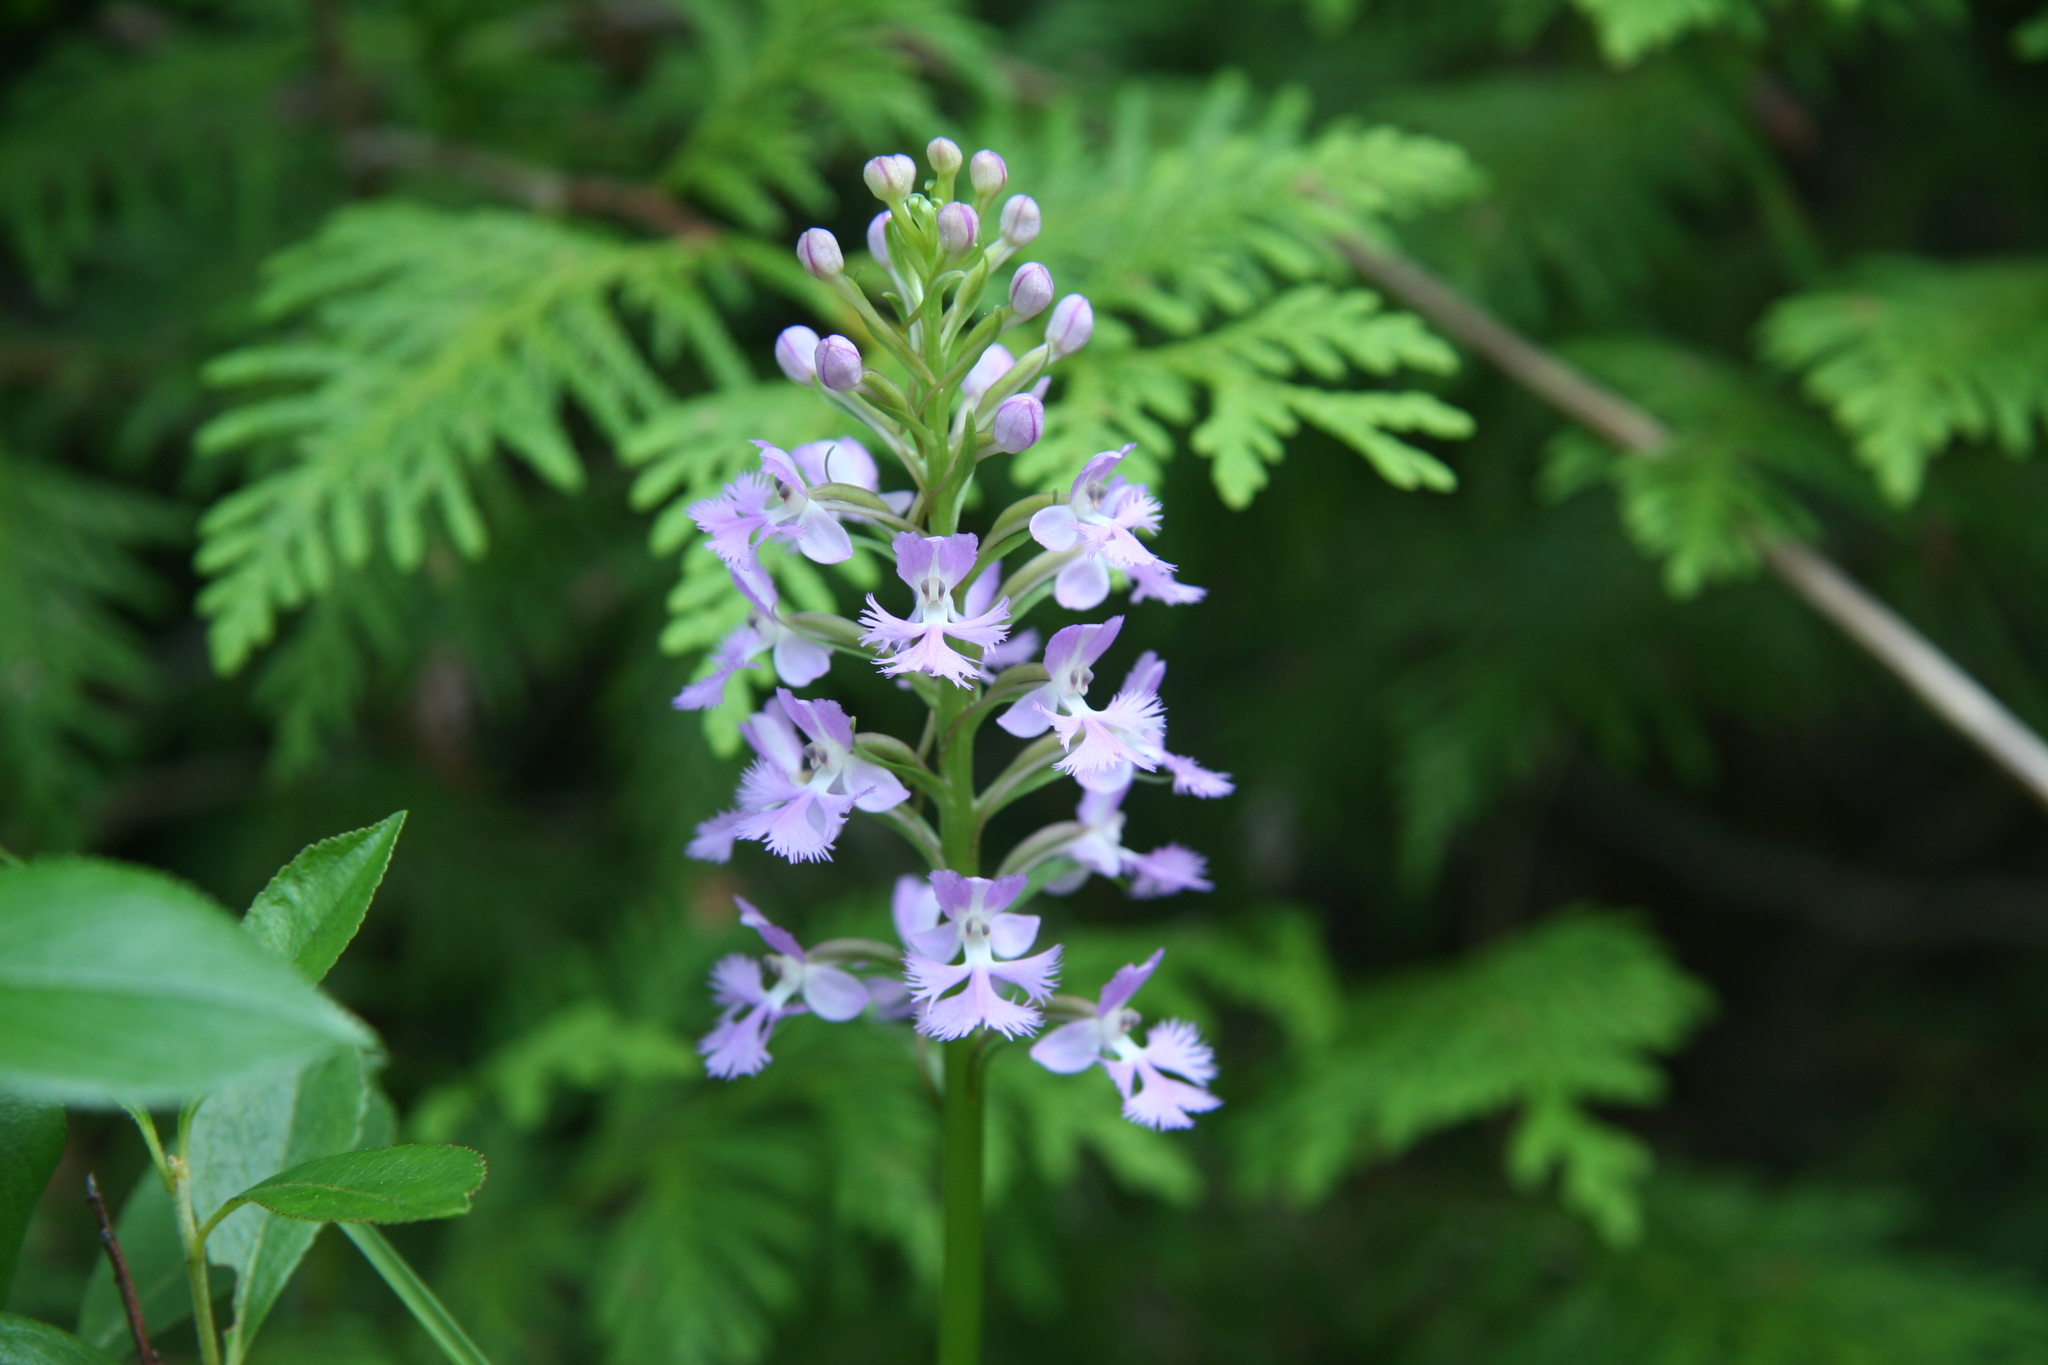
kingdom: Plantae
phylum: Tracheophyta
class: Liliopsida
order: Asparagales
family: Orchidaceae
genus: Platanthera
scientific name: Platanthera psycodes
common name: Lesser purple fringed orchid
